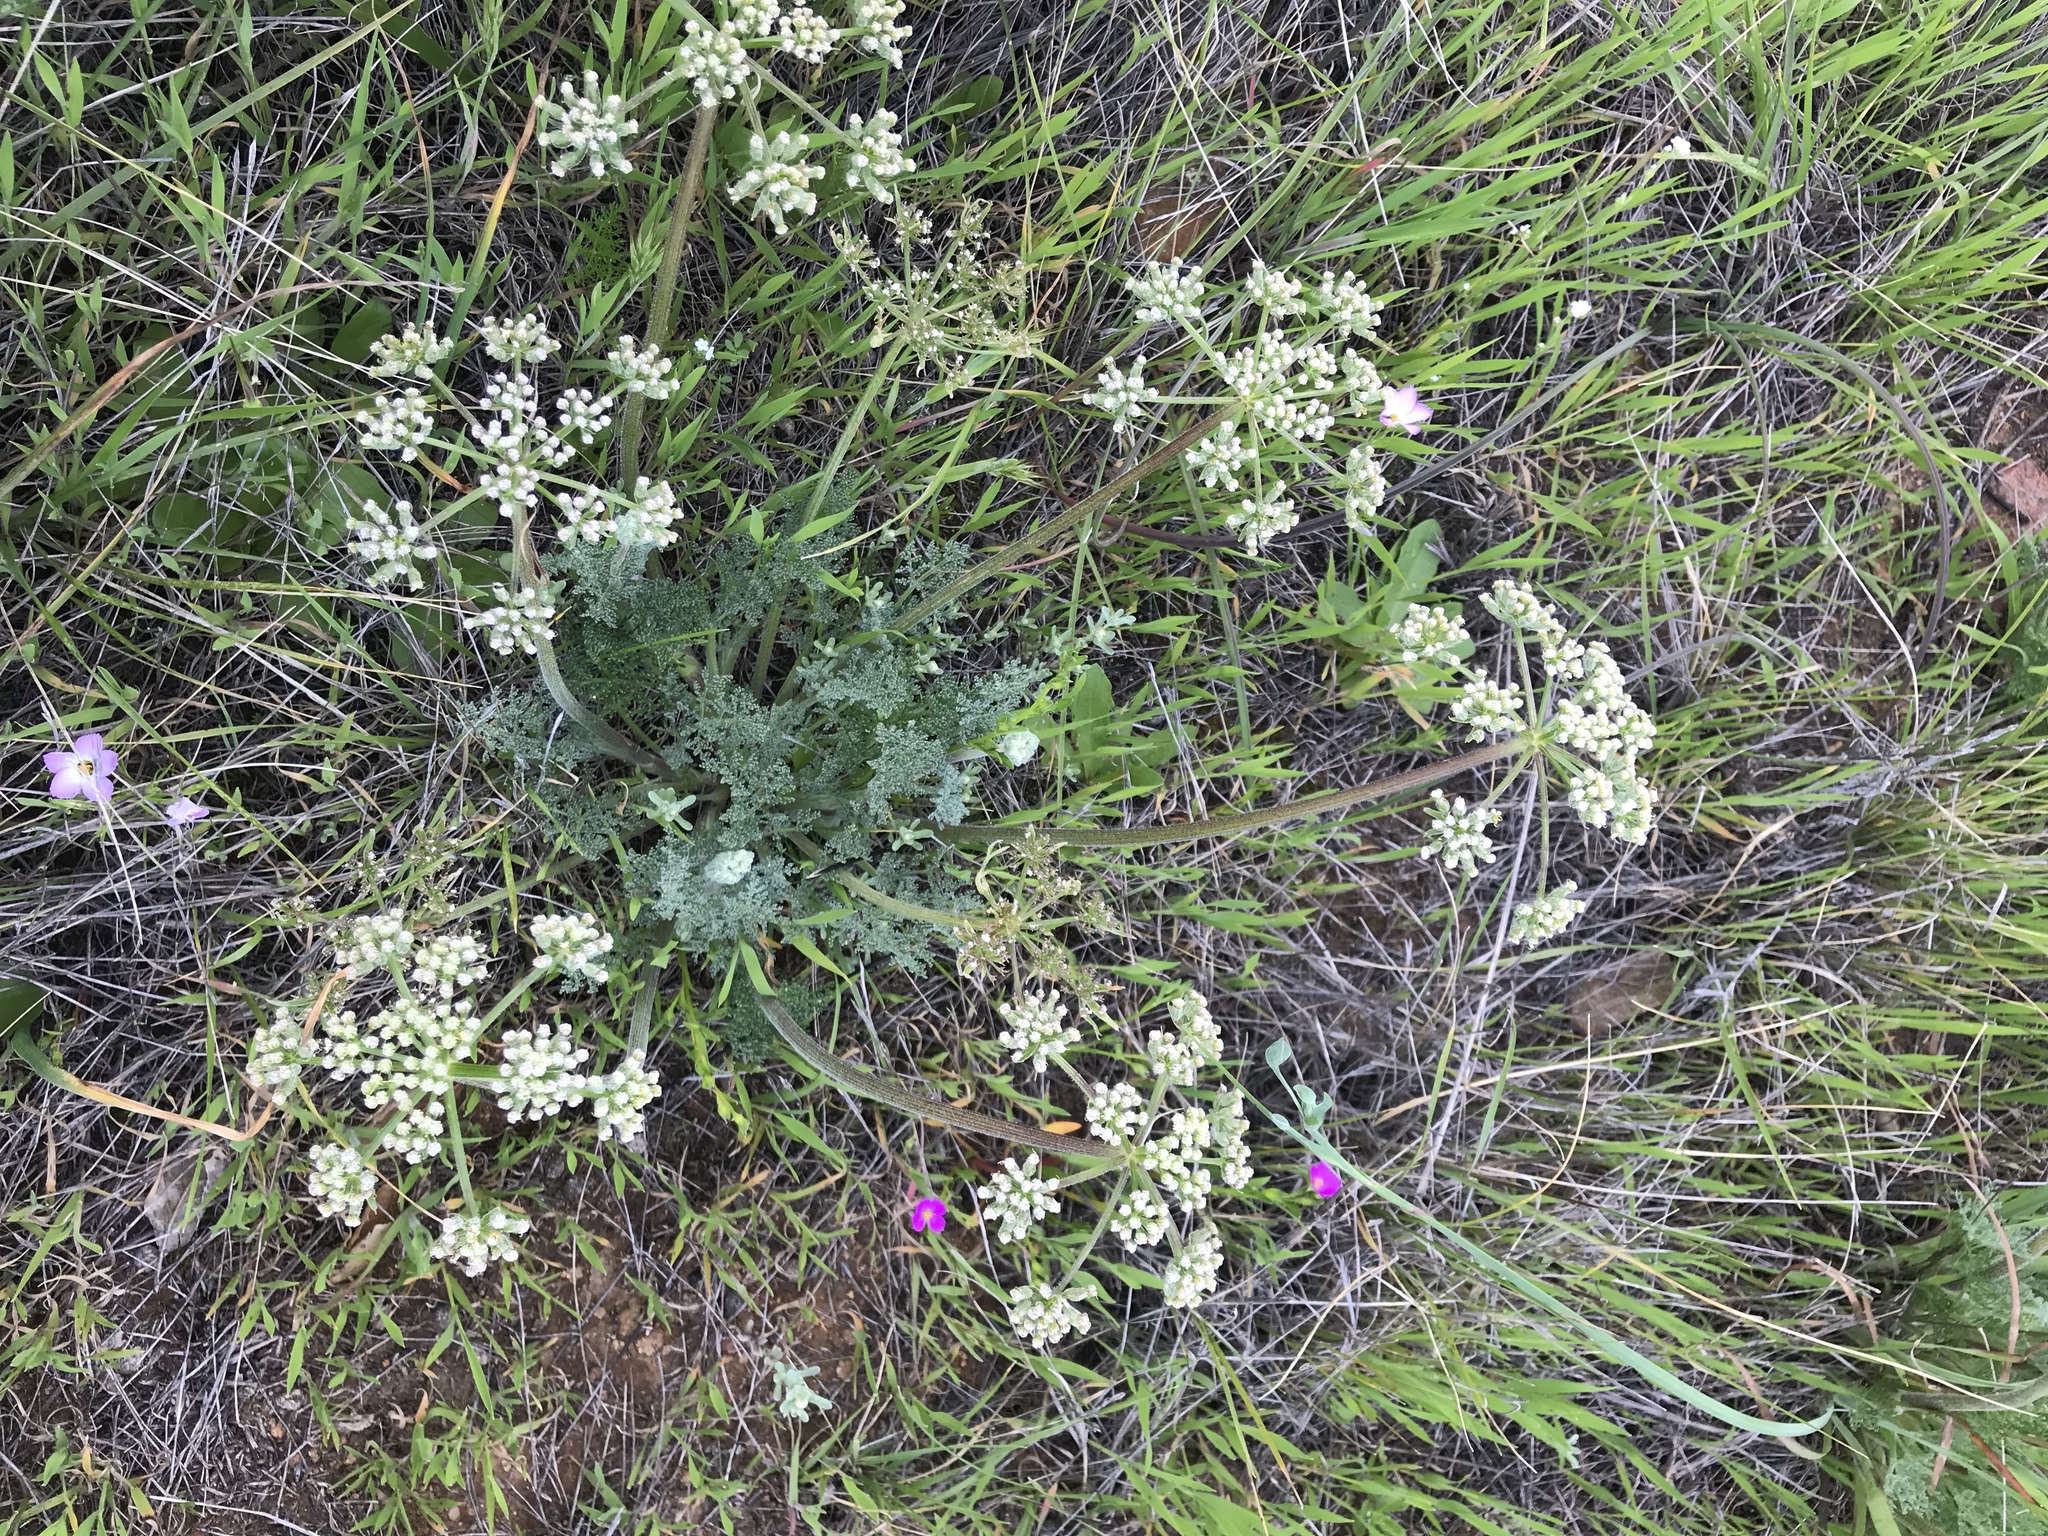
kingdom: Plantae
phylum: Tracheophyta
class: Magnoliopsida
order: Apiales
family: Apiaceae
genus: Lomatium
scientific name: Lomatium dasycarpum
